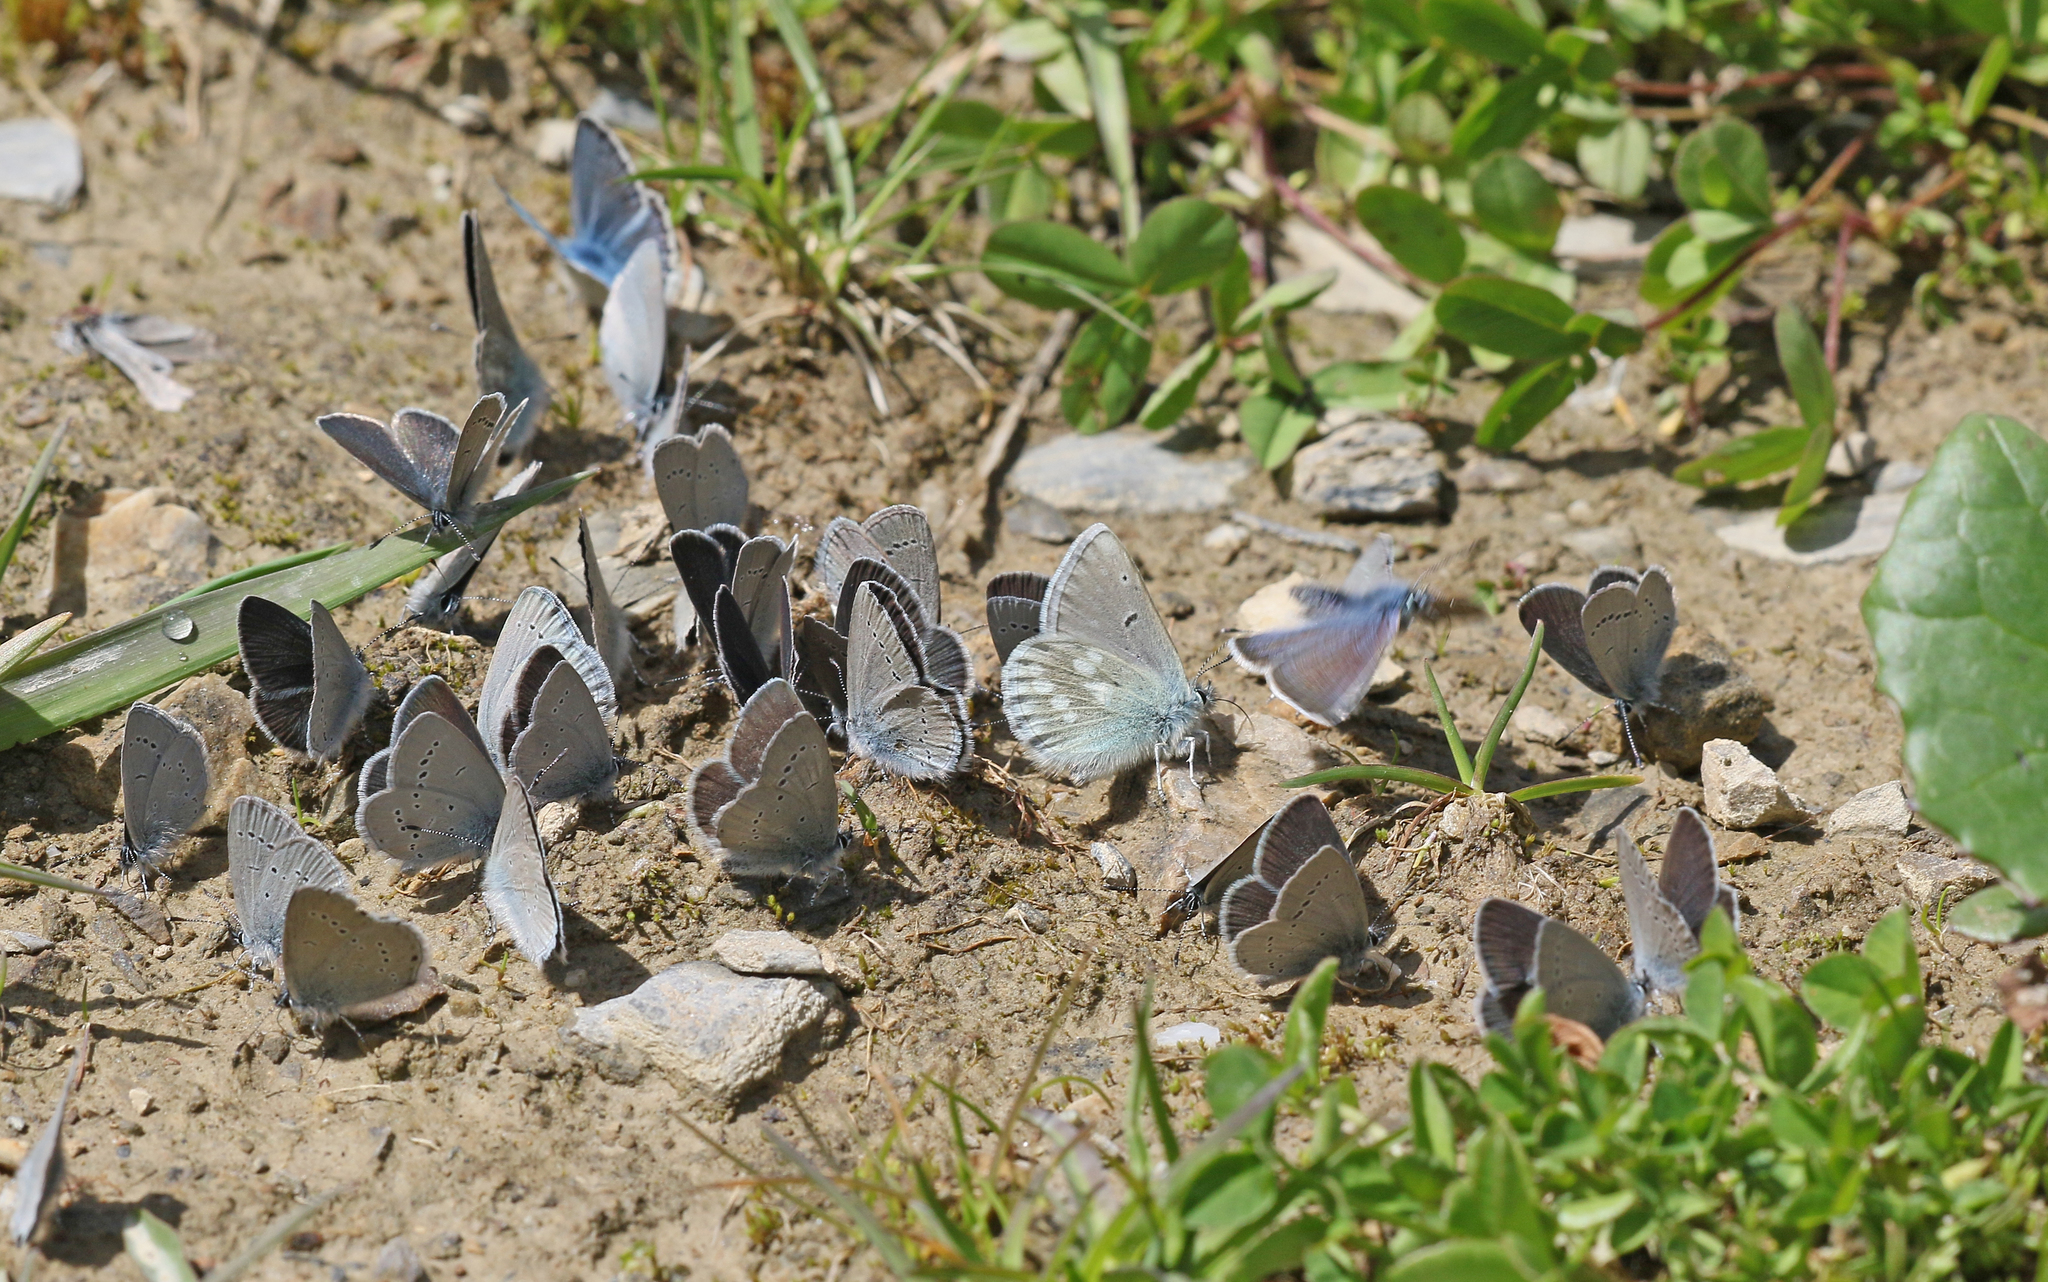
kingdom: Animalia
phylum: Arthropoda
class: Insecta
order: Lepidoptera
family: Lycaenidae
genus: Albulina
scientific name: Albulina orbitulus
